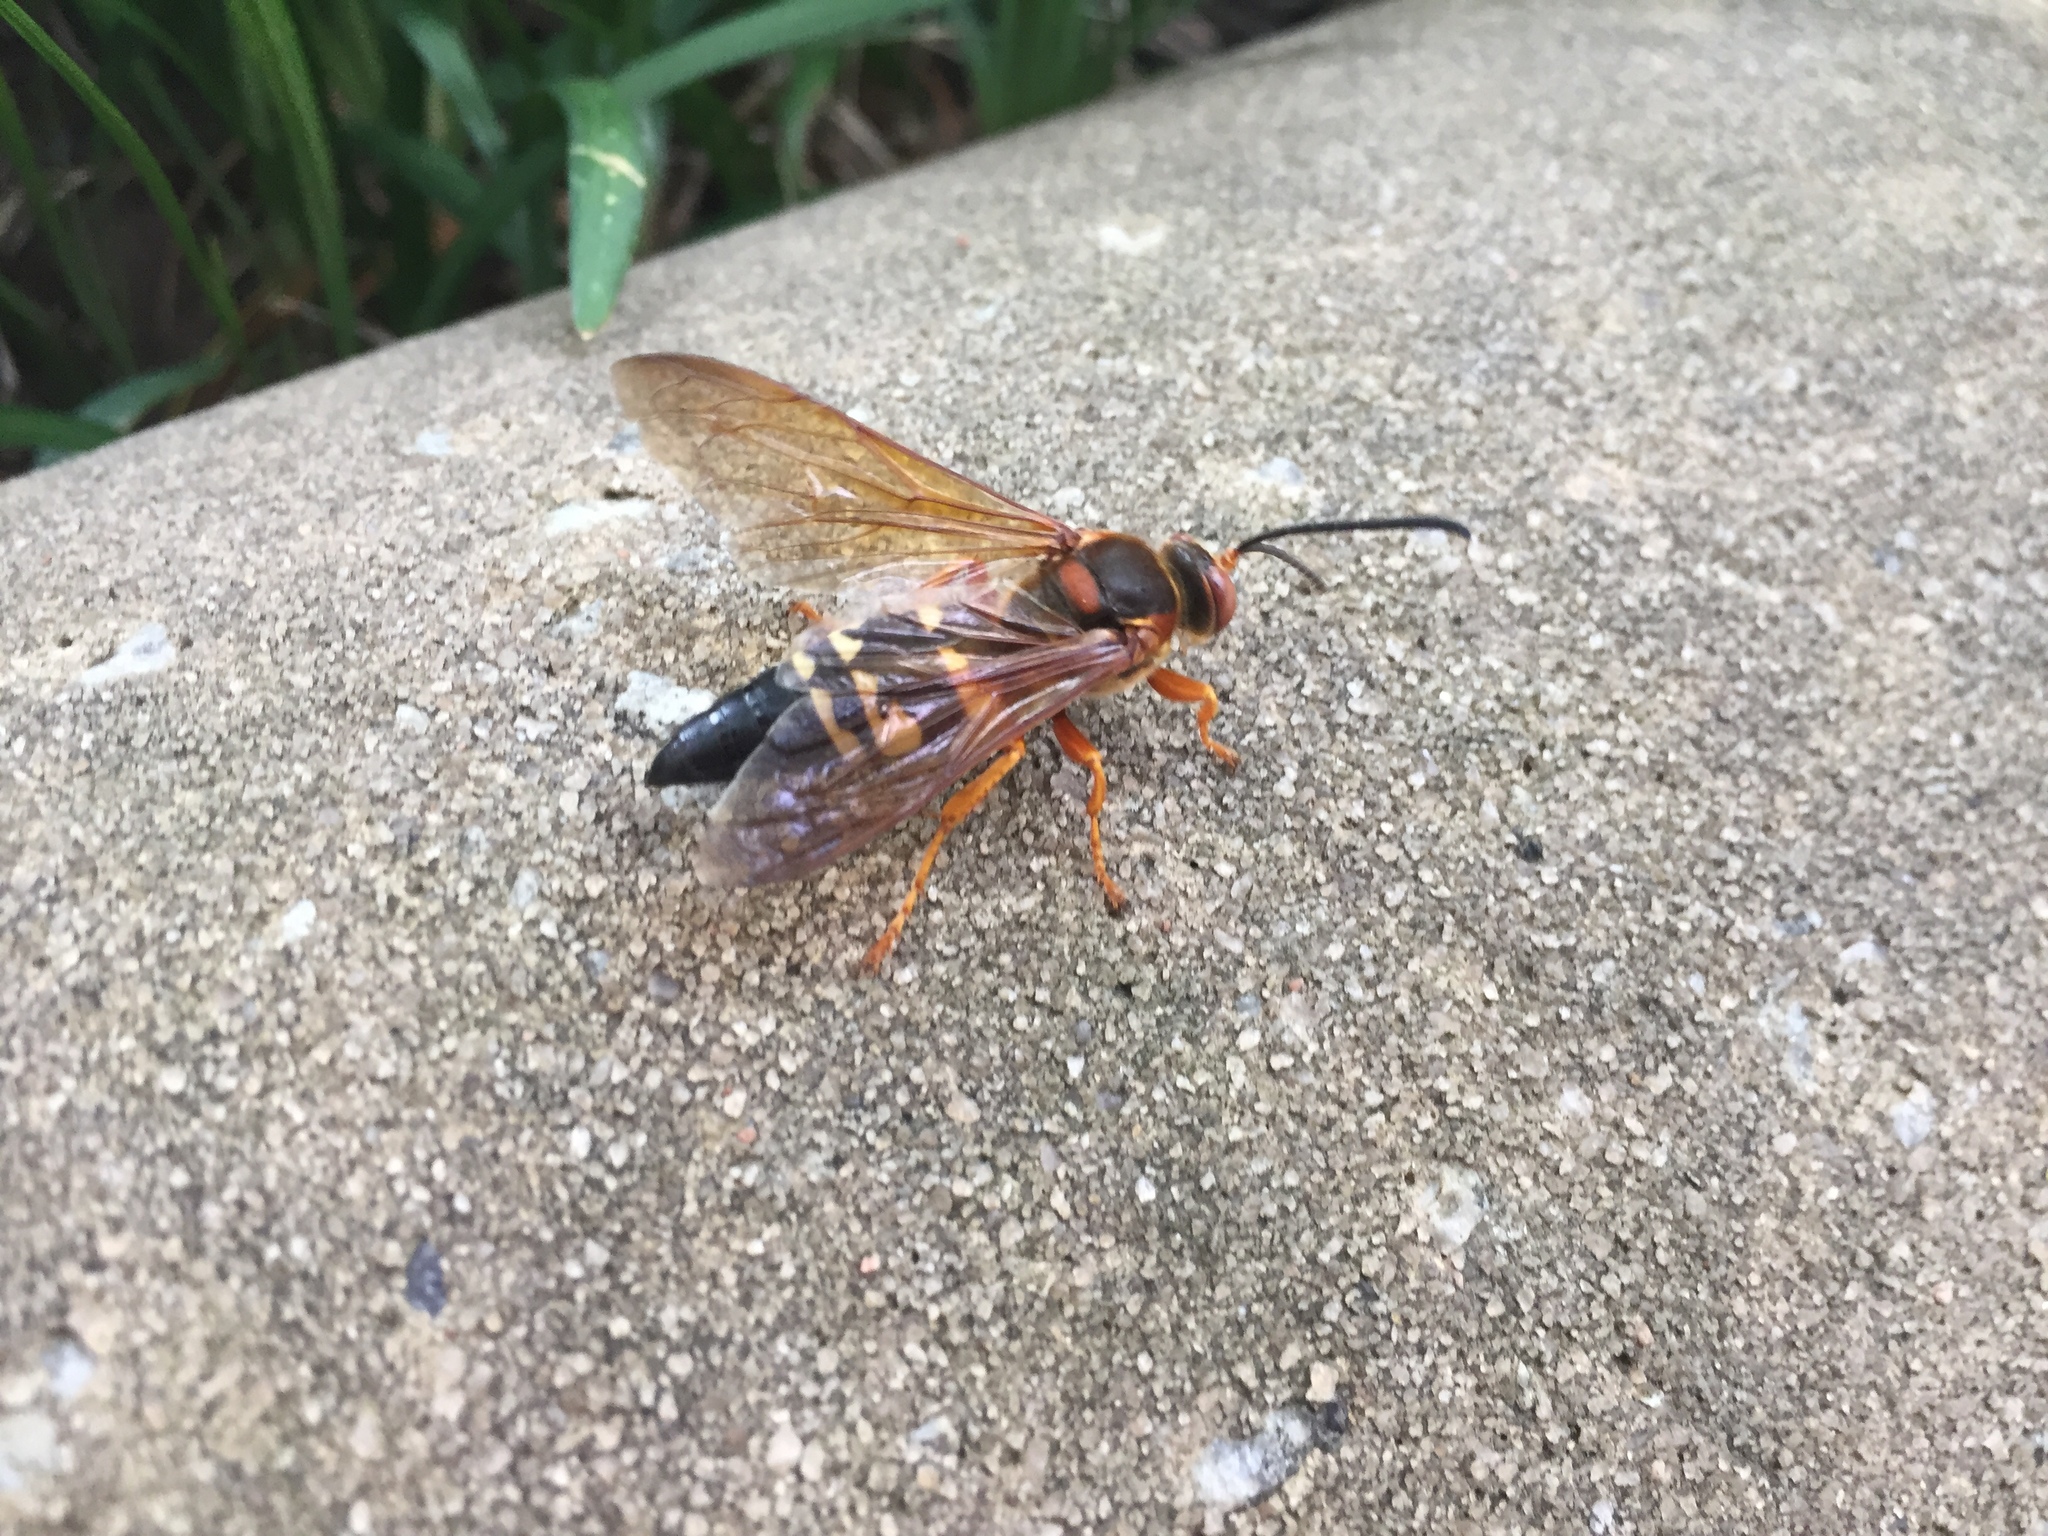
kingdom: Animalia
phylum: Arthropoda
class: Insecta
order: Hymenoptera
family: Crabronidae
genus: Sphecius
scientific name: Sphecius speciosus
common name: Cicada killer
